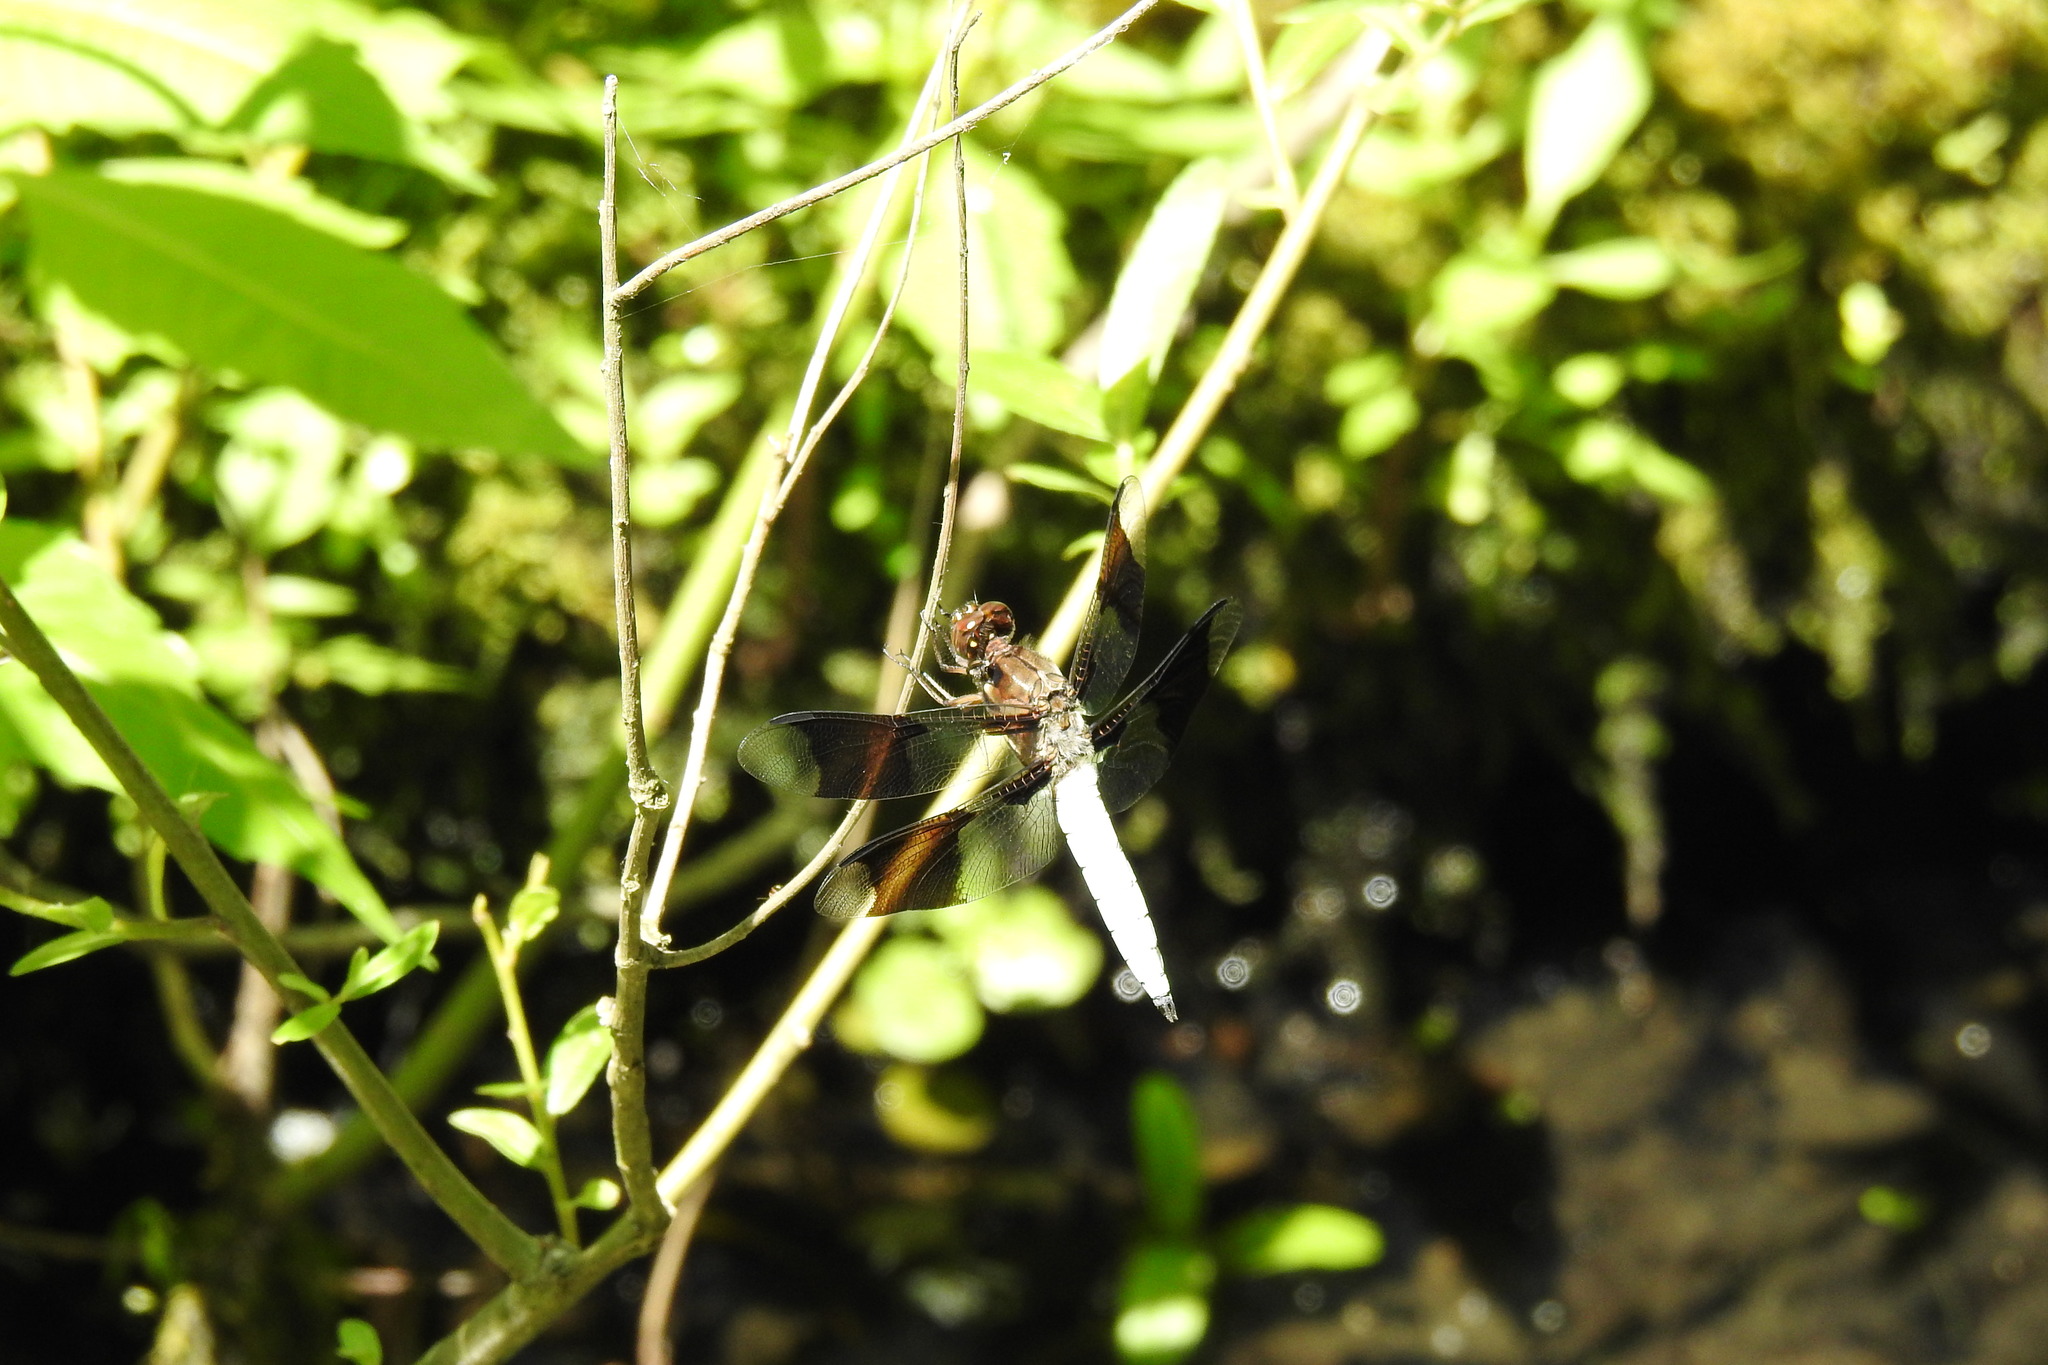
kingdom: Animalia
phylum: Arthropoda
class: Insecta
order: Odonata
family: Libellulidae
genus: Plathemis
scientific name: Plathemis lydia
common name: Common whitetail
